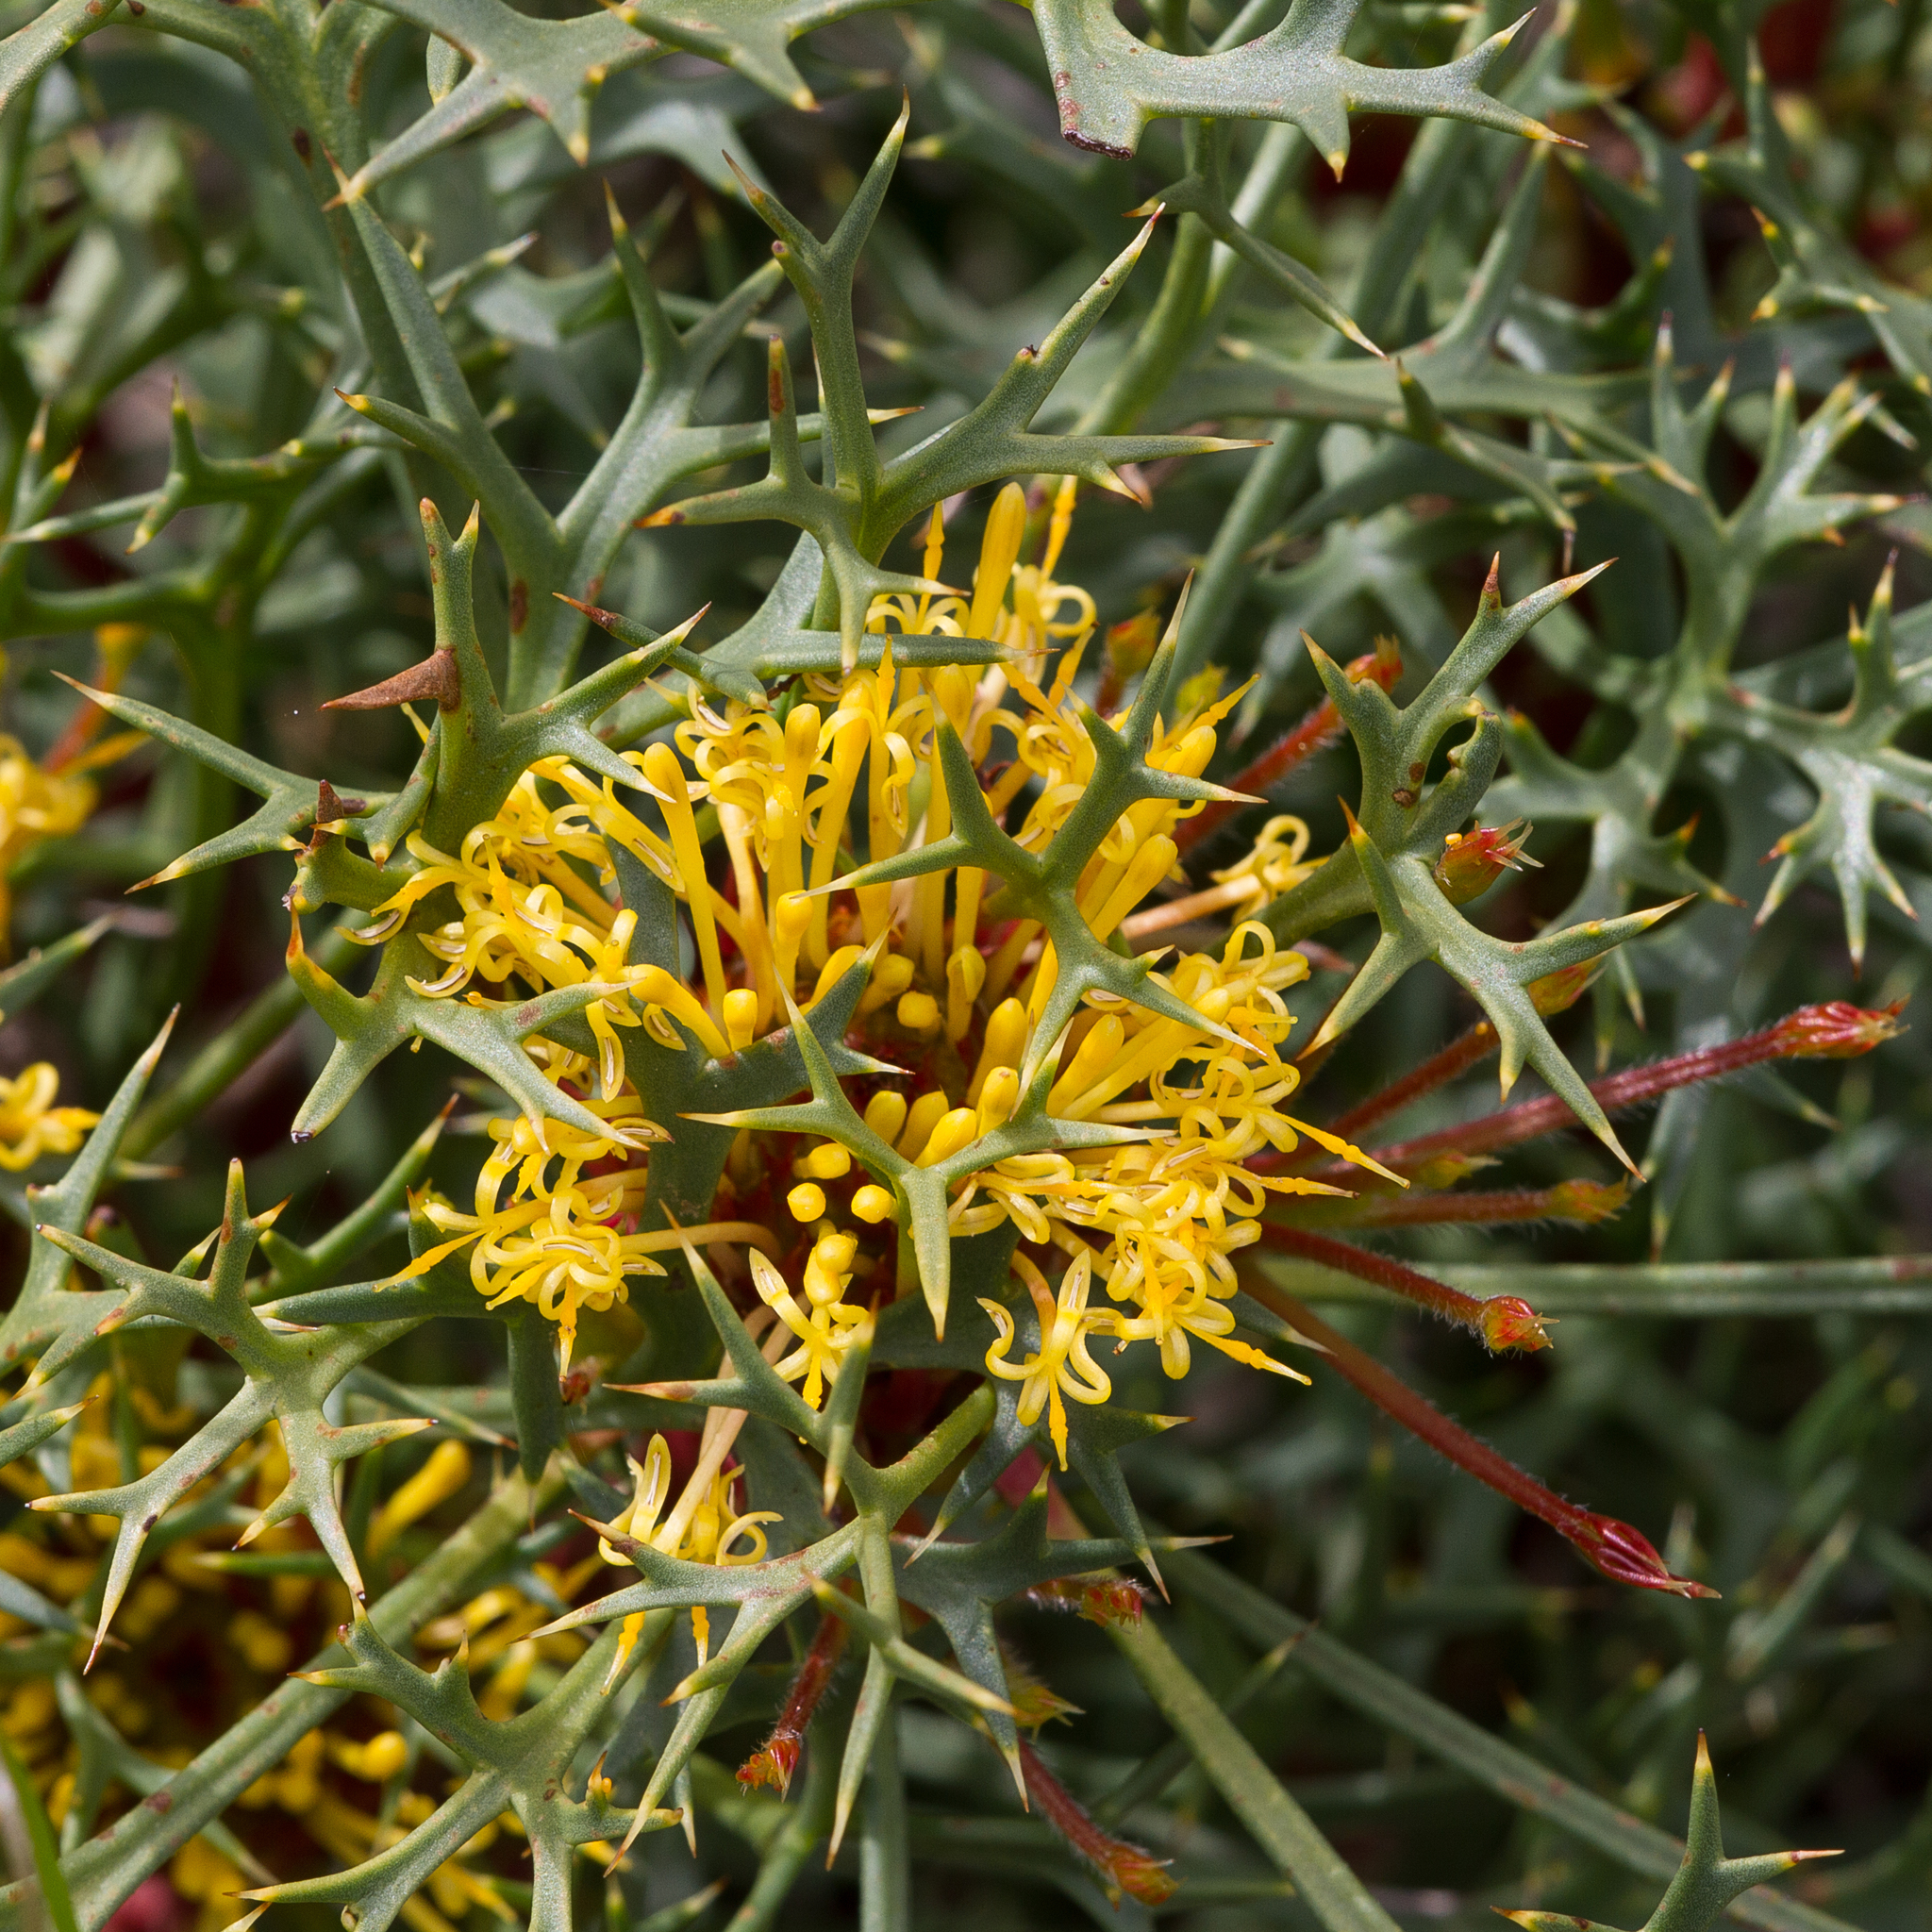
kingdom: Plantae
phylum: Tracheophyta
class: Magnoliopsida
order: Proteales
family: Proteaceae
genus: Isopogon
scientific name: Isopogon ceratophyllus
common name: Horny cone-bush
